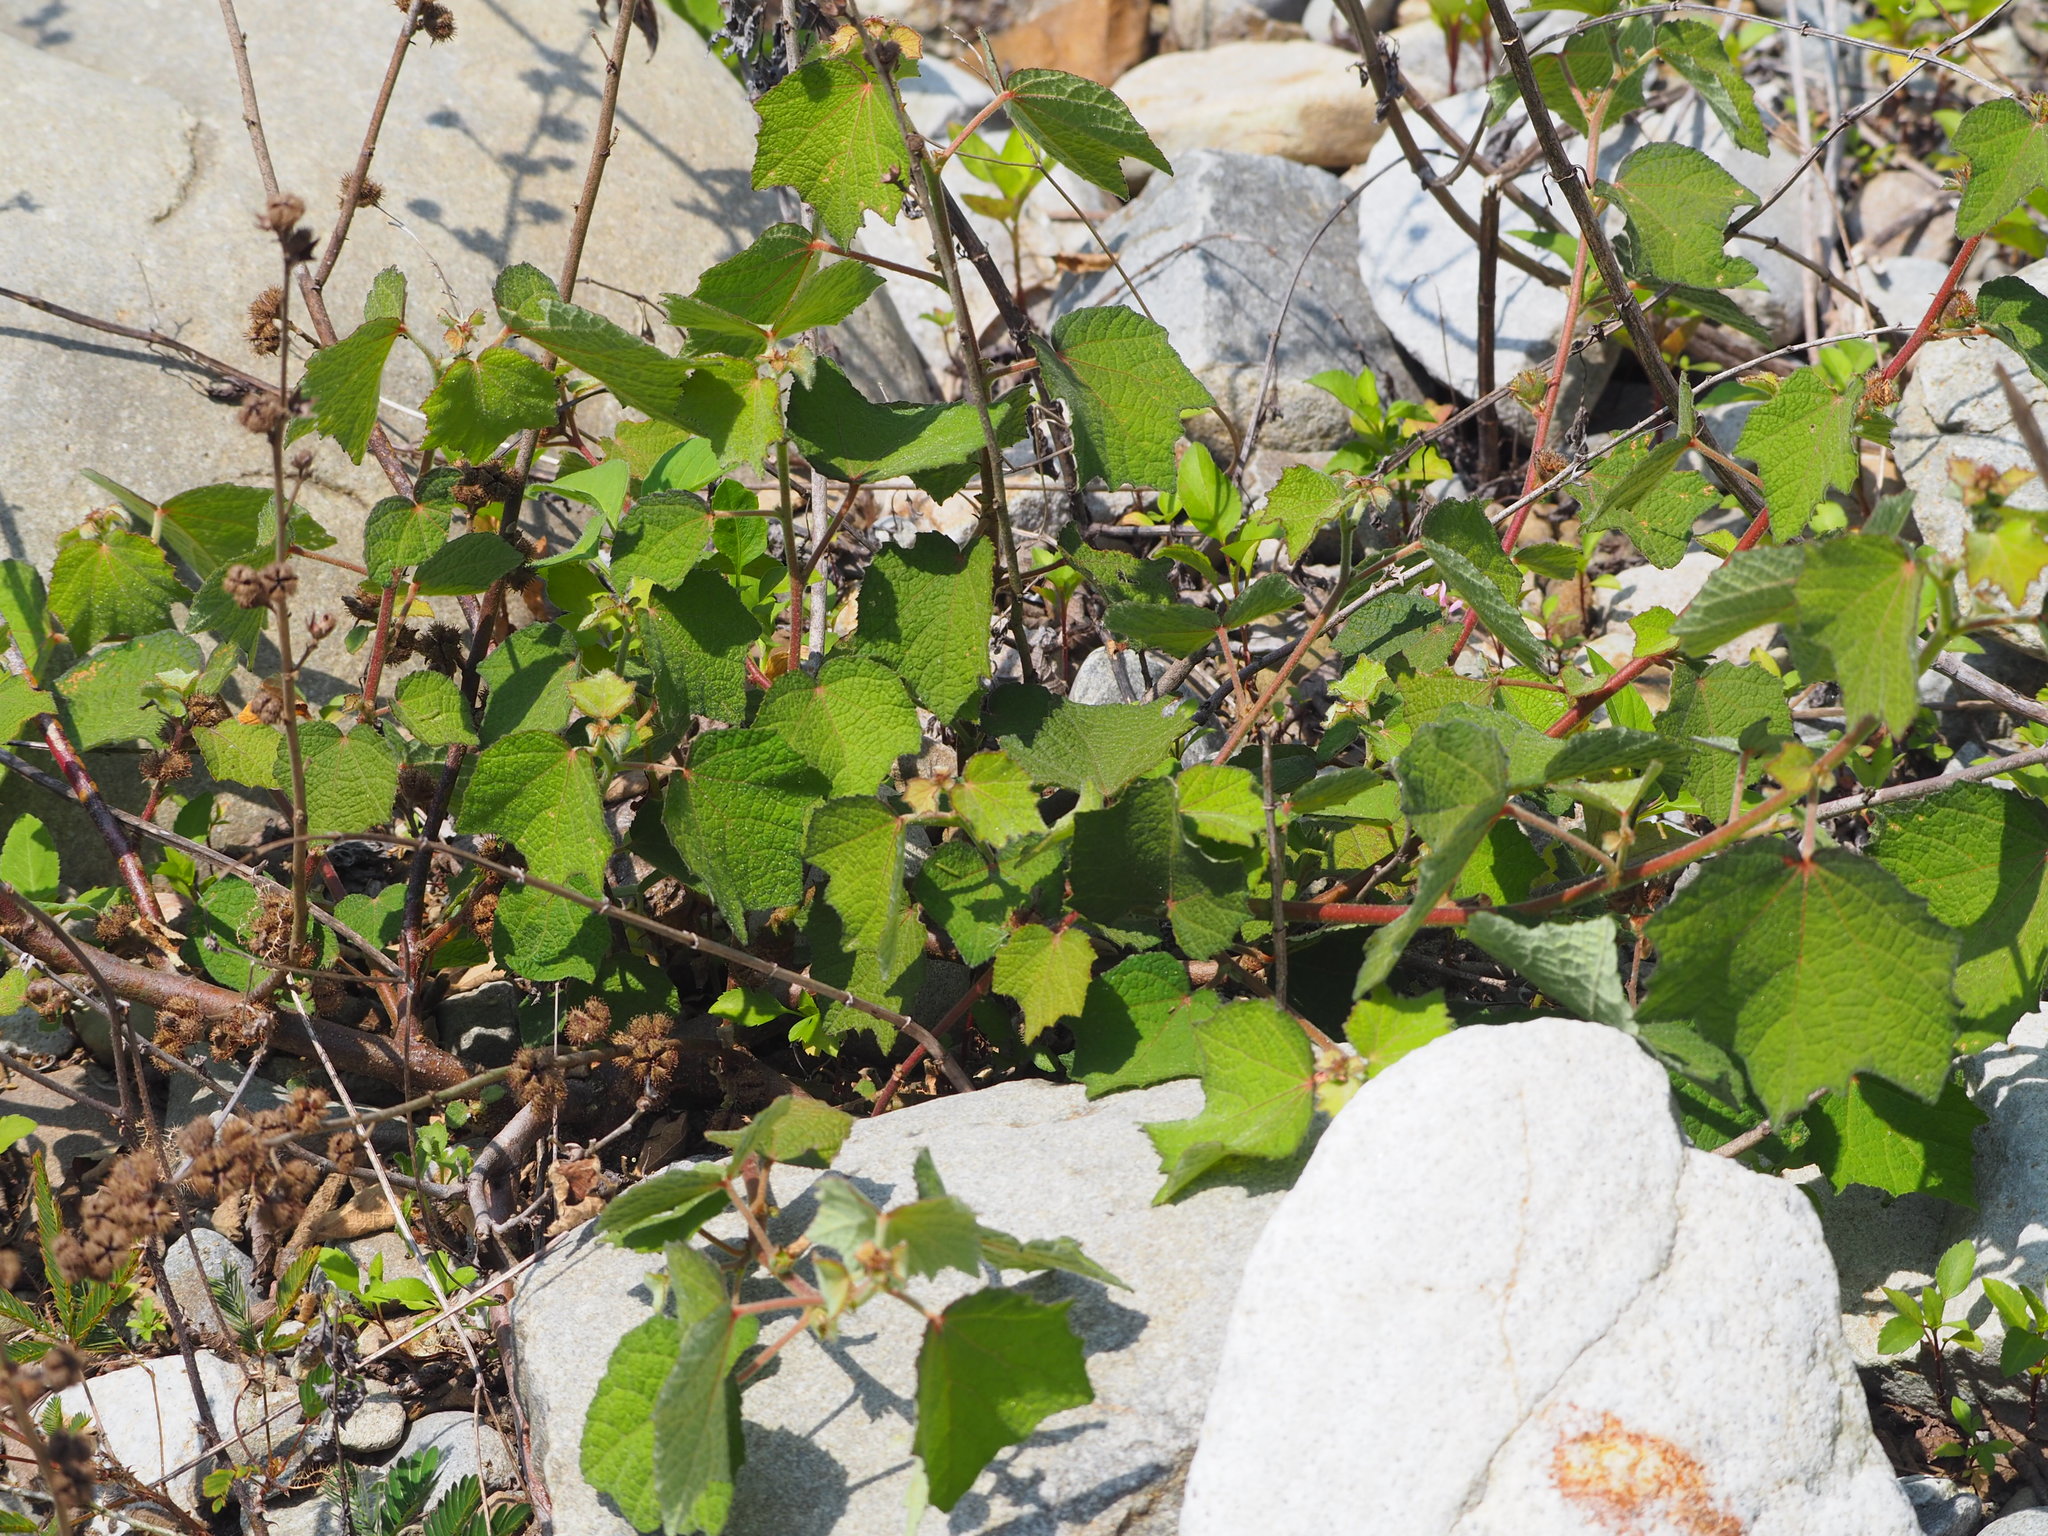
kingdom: Plantae
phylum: Tracheophyta
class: Magnoliopsida
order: Malvales
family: Malvaceae
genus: Urena
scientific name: Urena lobata
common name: Caesarweed
